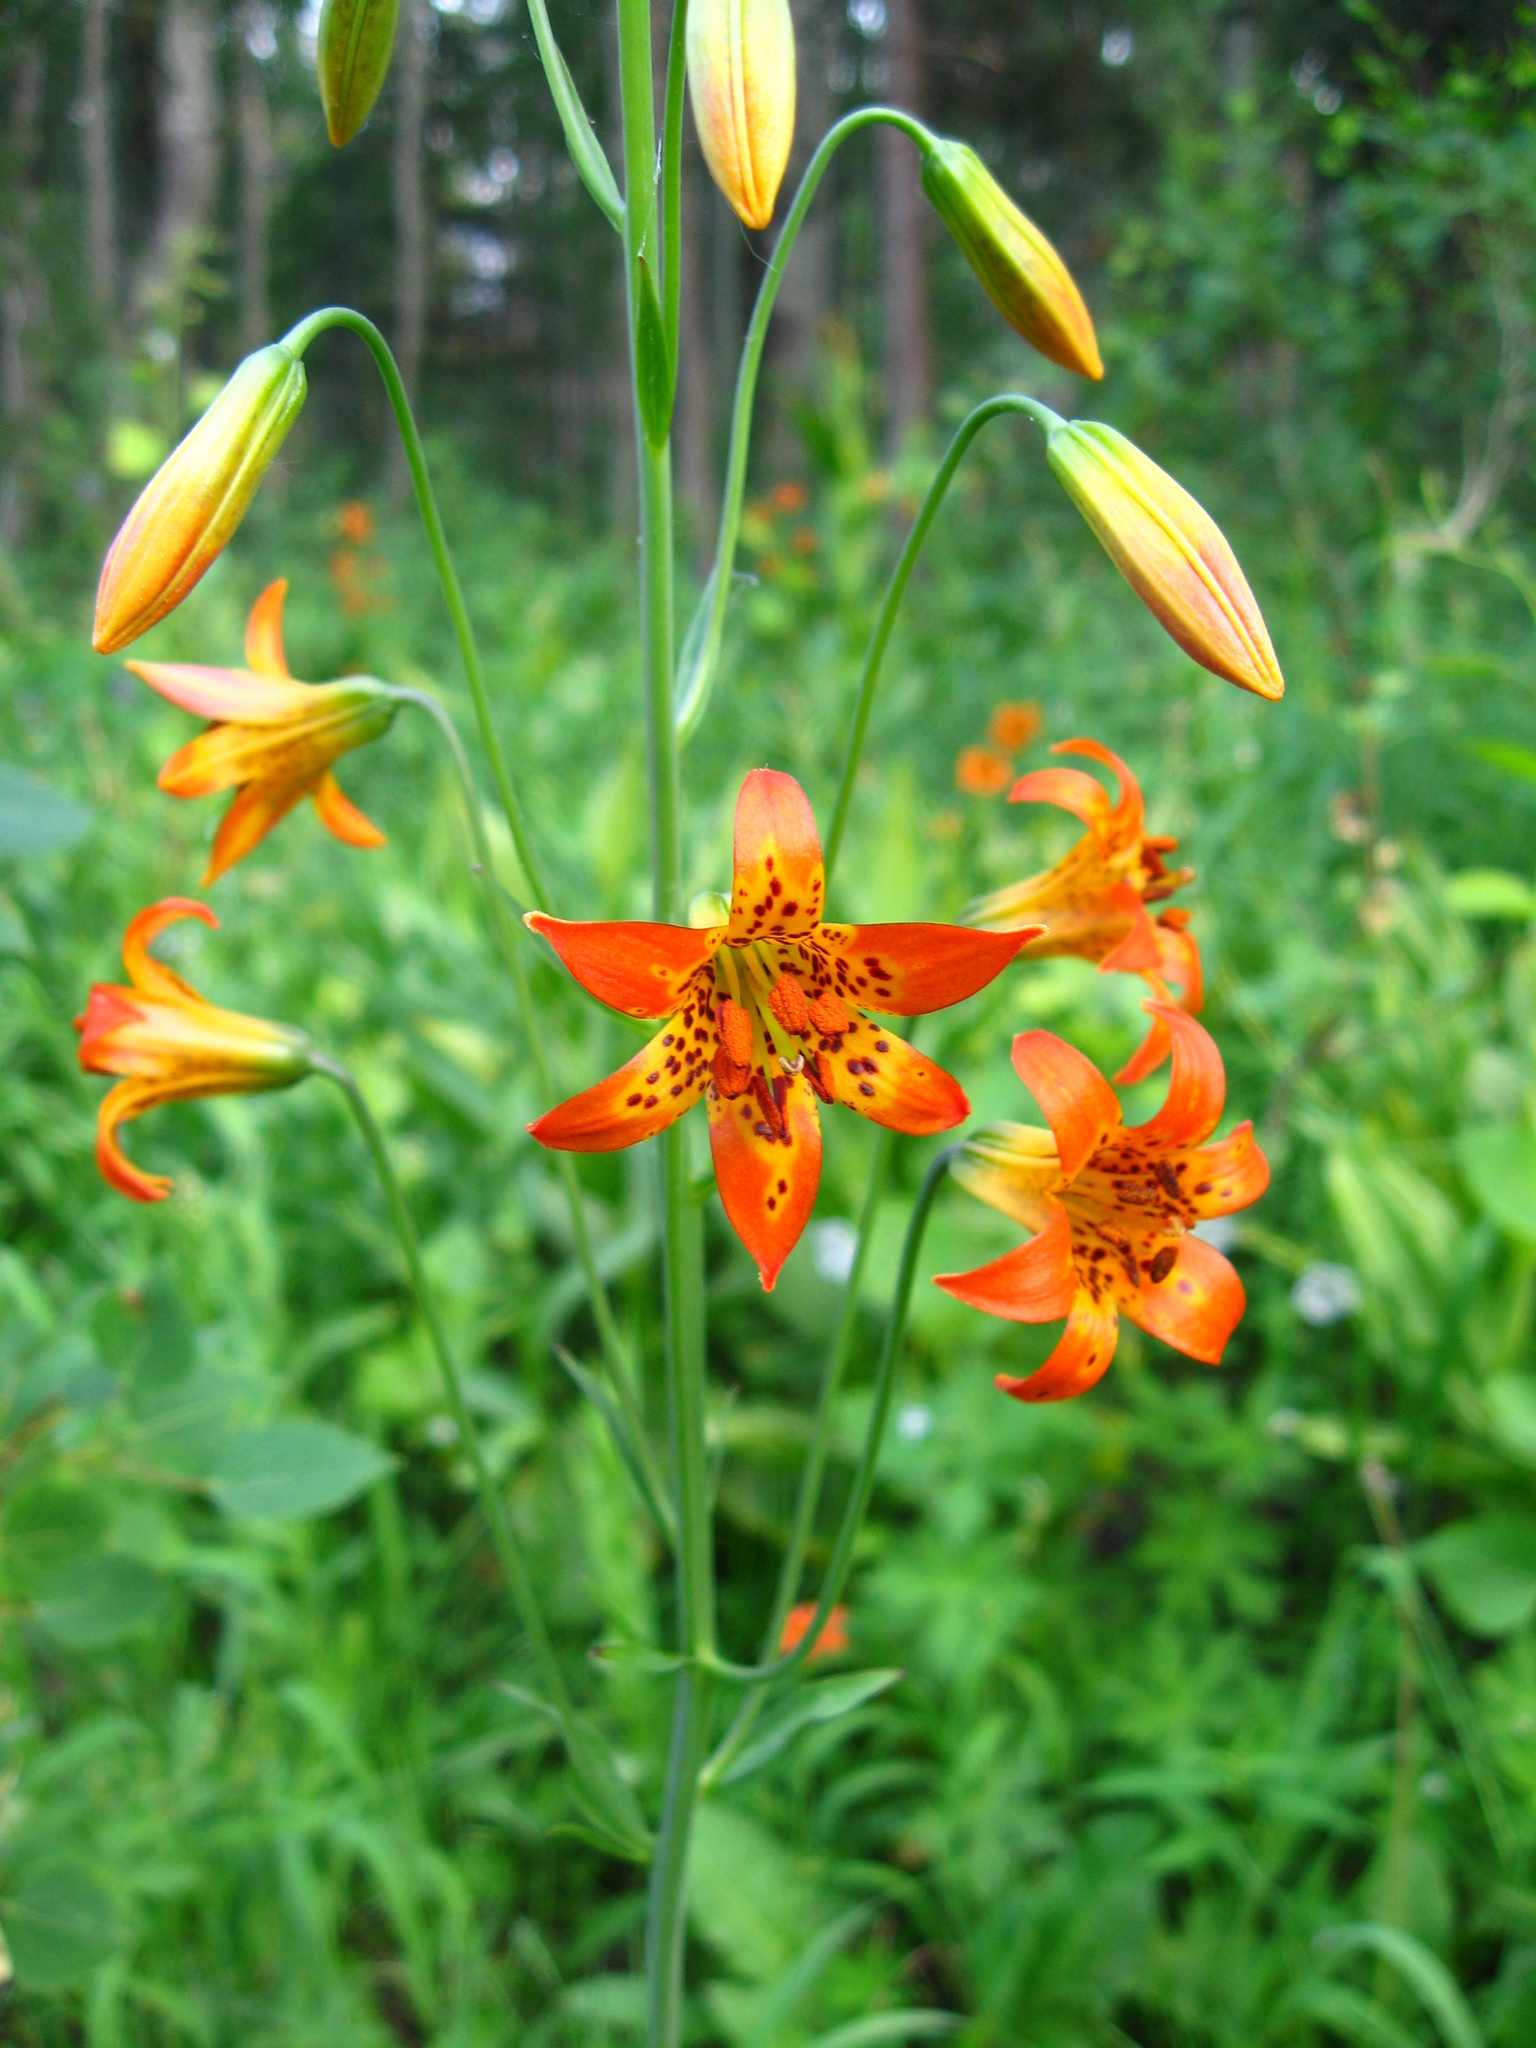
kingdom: Plantae
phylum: Tracheophyta
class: Liliopsida
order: Liliales
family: Liliaceae
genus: Lilium
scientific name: Lilium parvum
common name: Alpine lily
